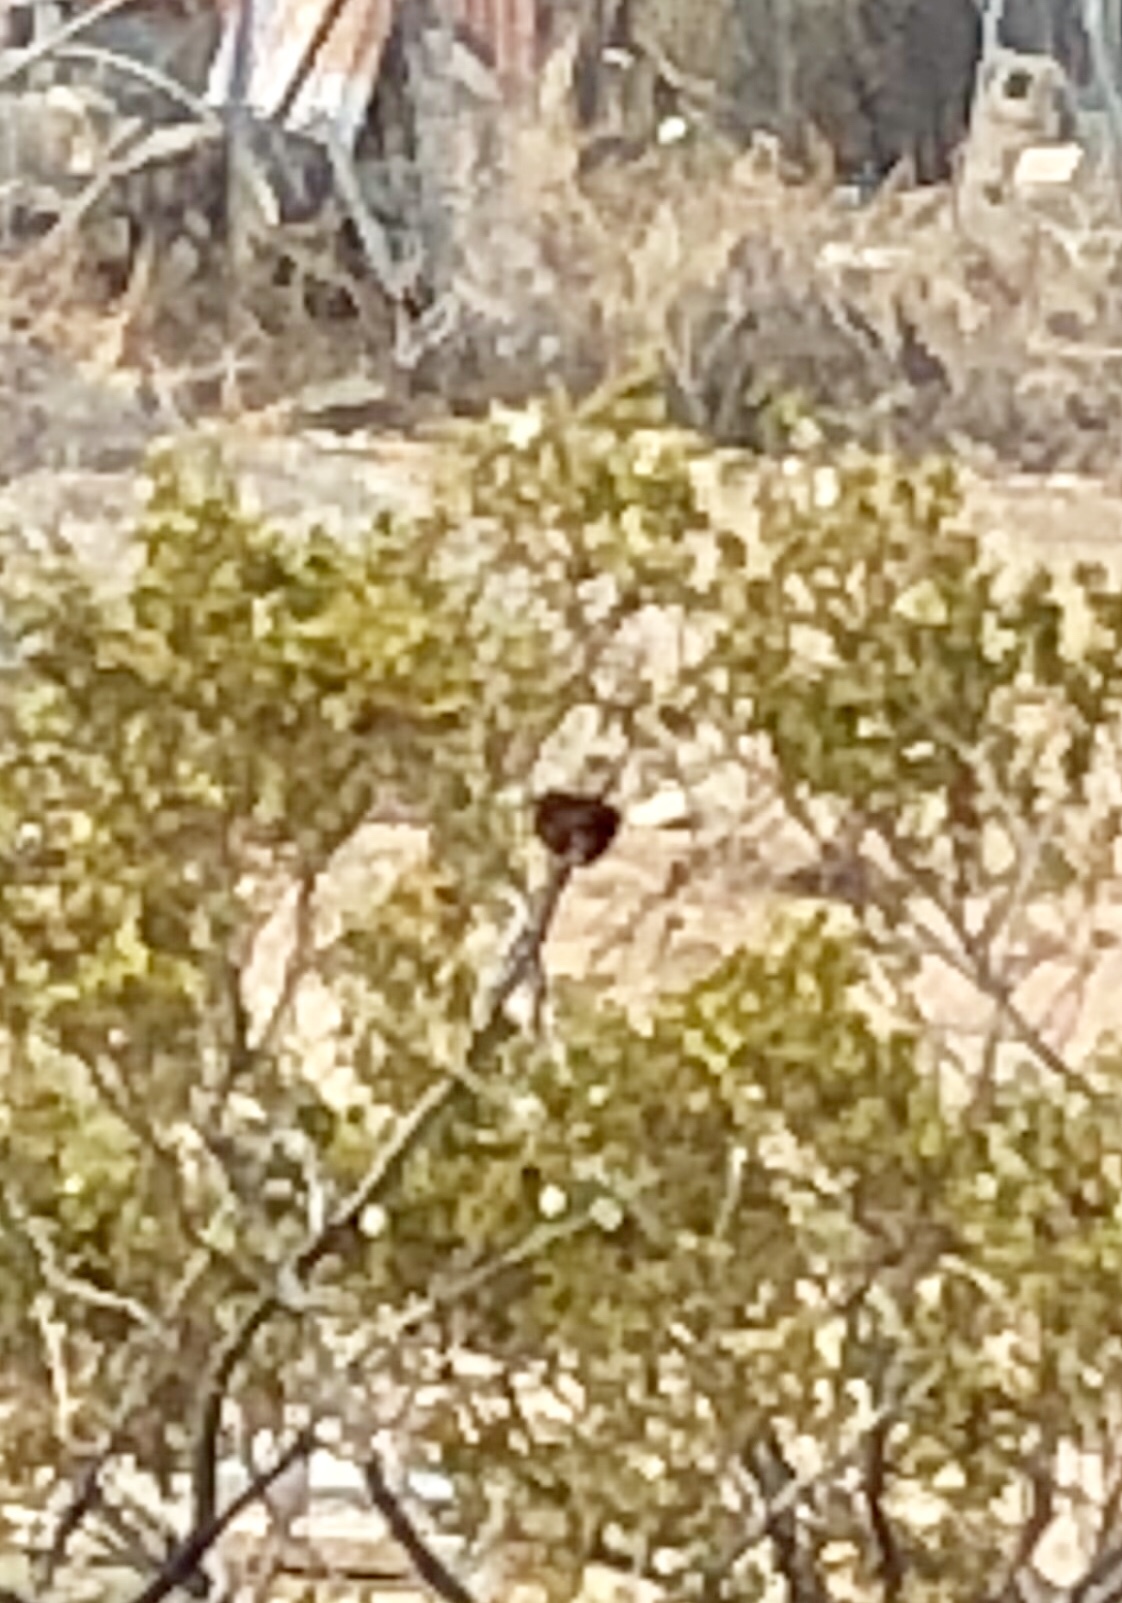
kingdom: Animalia
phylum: Arthropoda
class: Insecta
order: Diptera
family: Cecidomyiidae
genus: Asphondylia
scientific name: Asphondylia auripila
